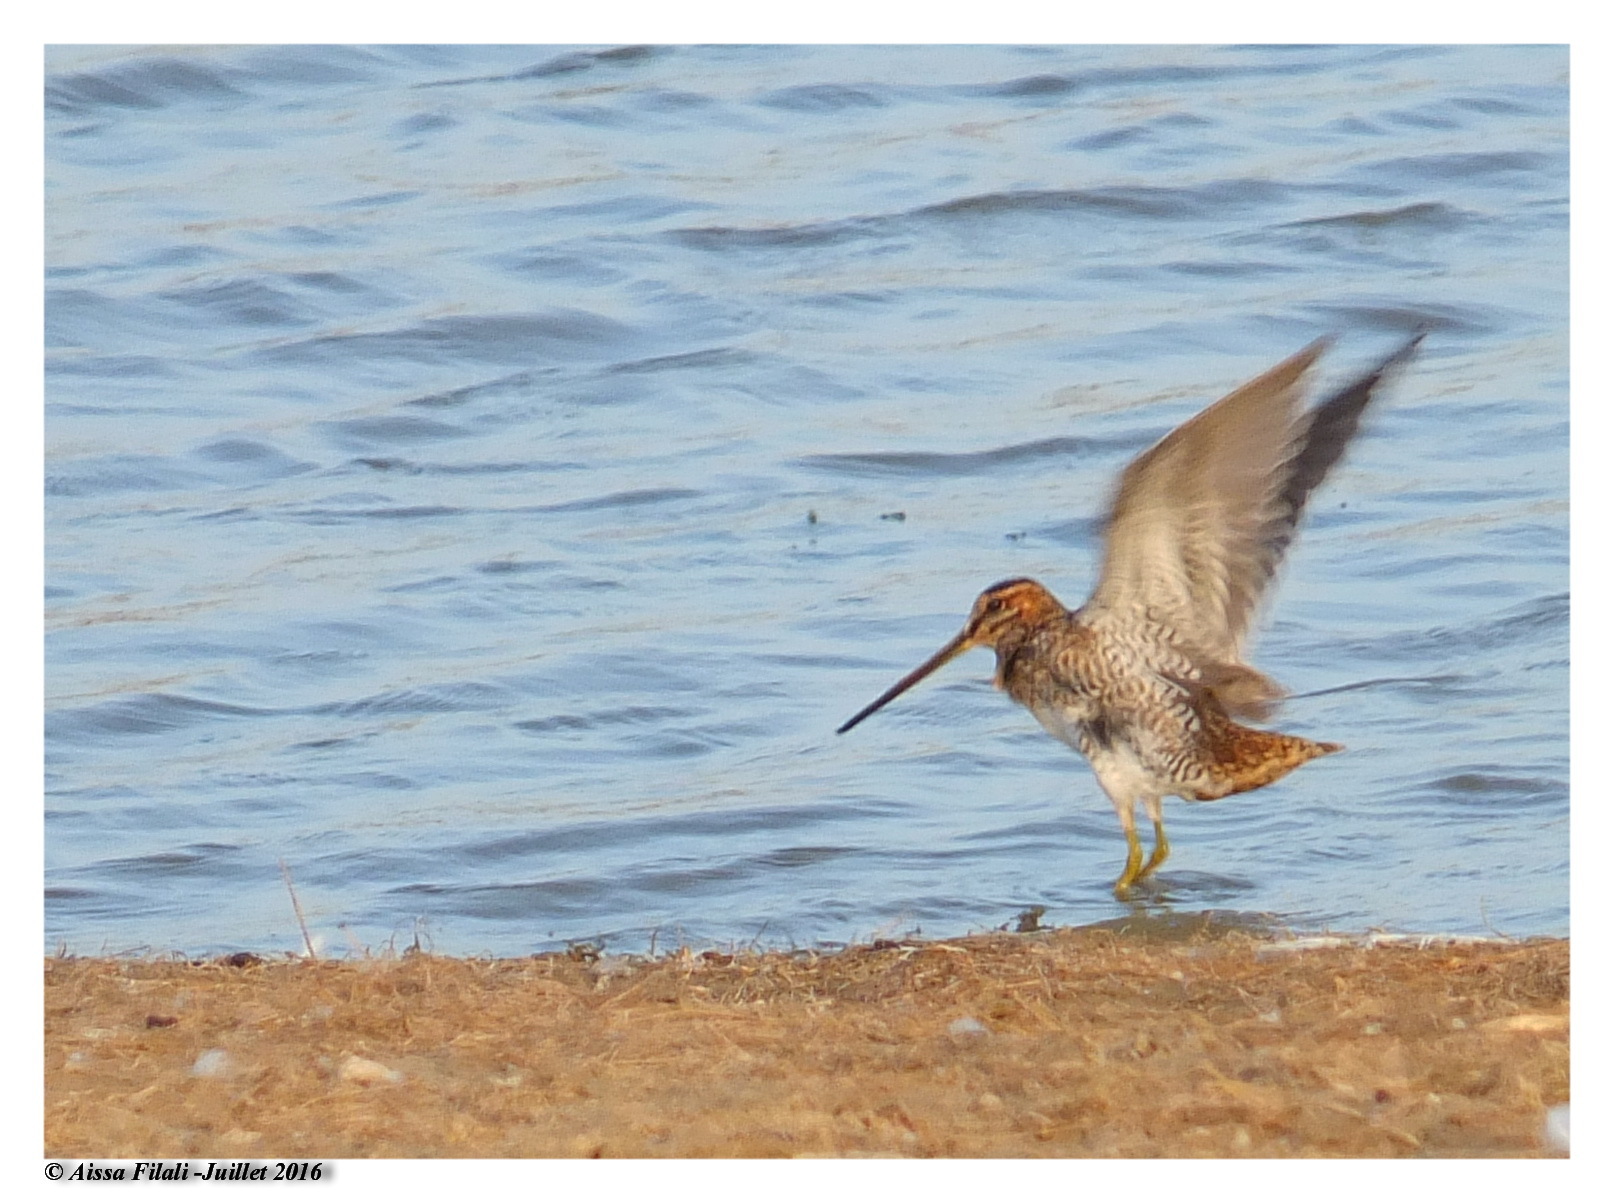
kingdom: Animalia
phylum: Chordata
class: Aves
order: Charadriiformes
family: Scolopacidae
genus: Gallinago
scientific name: Gallinago gallinago
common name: Common snipe
